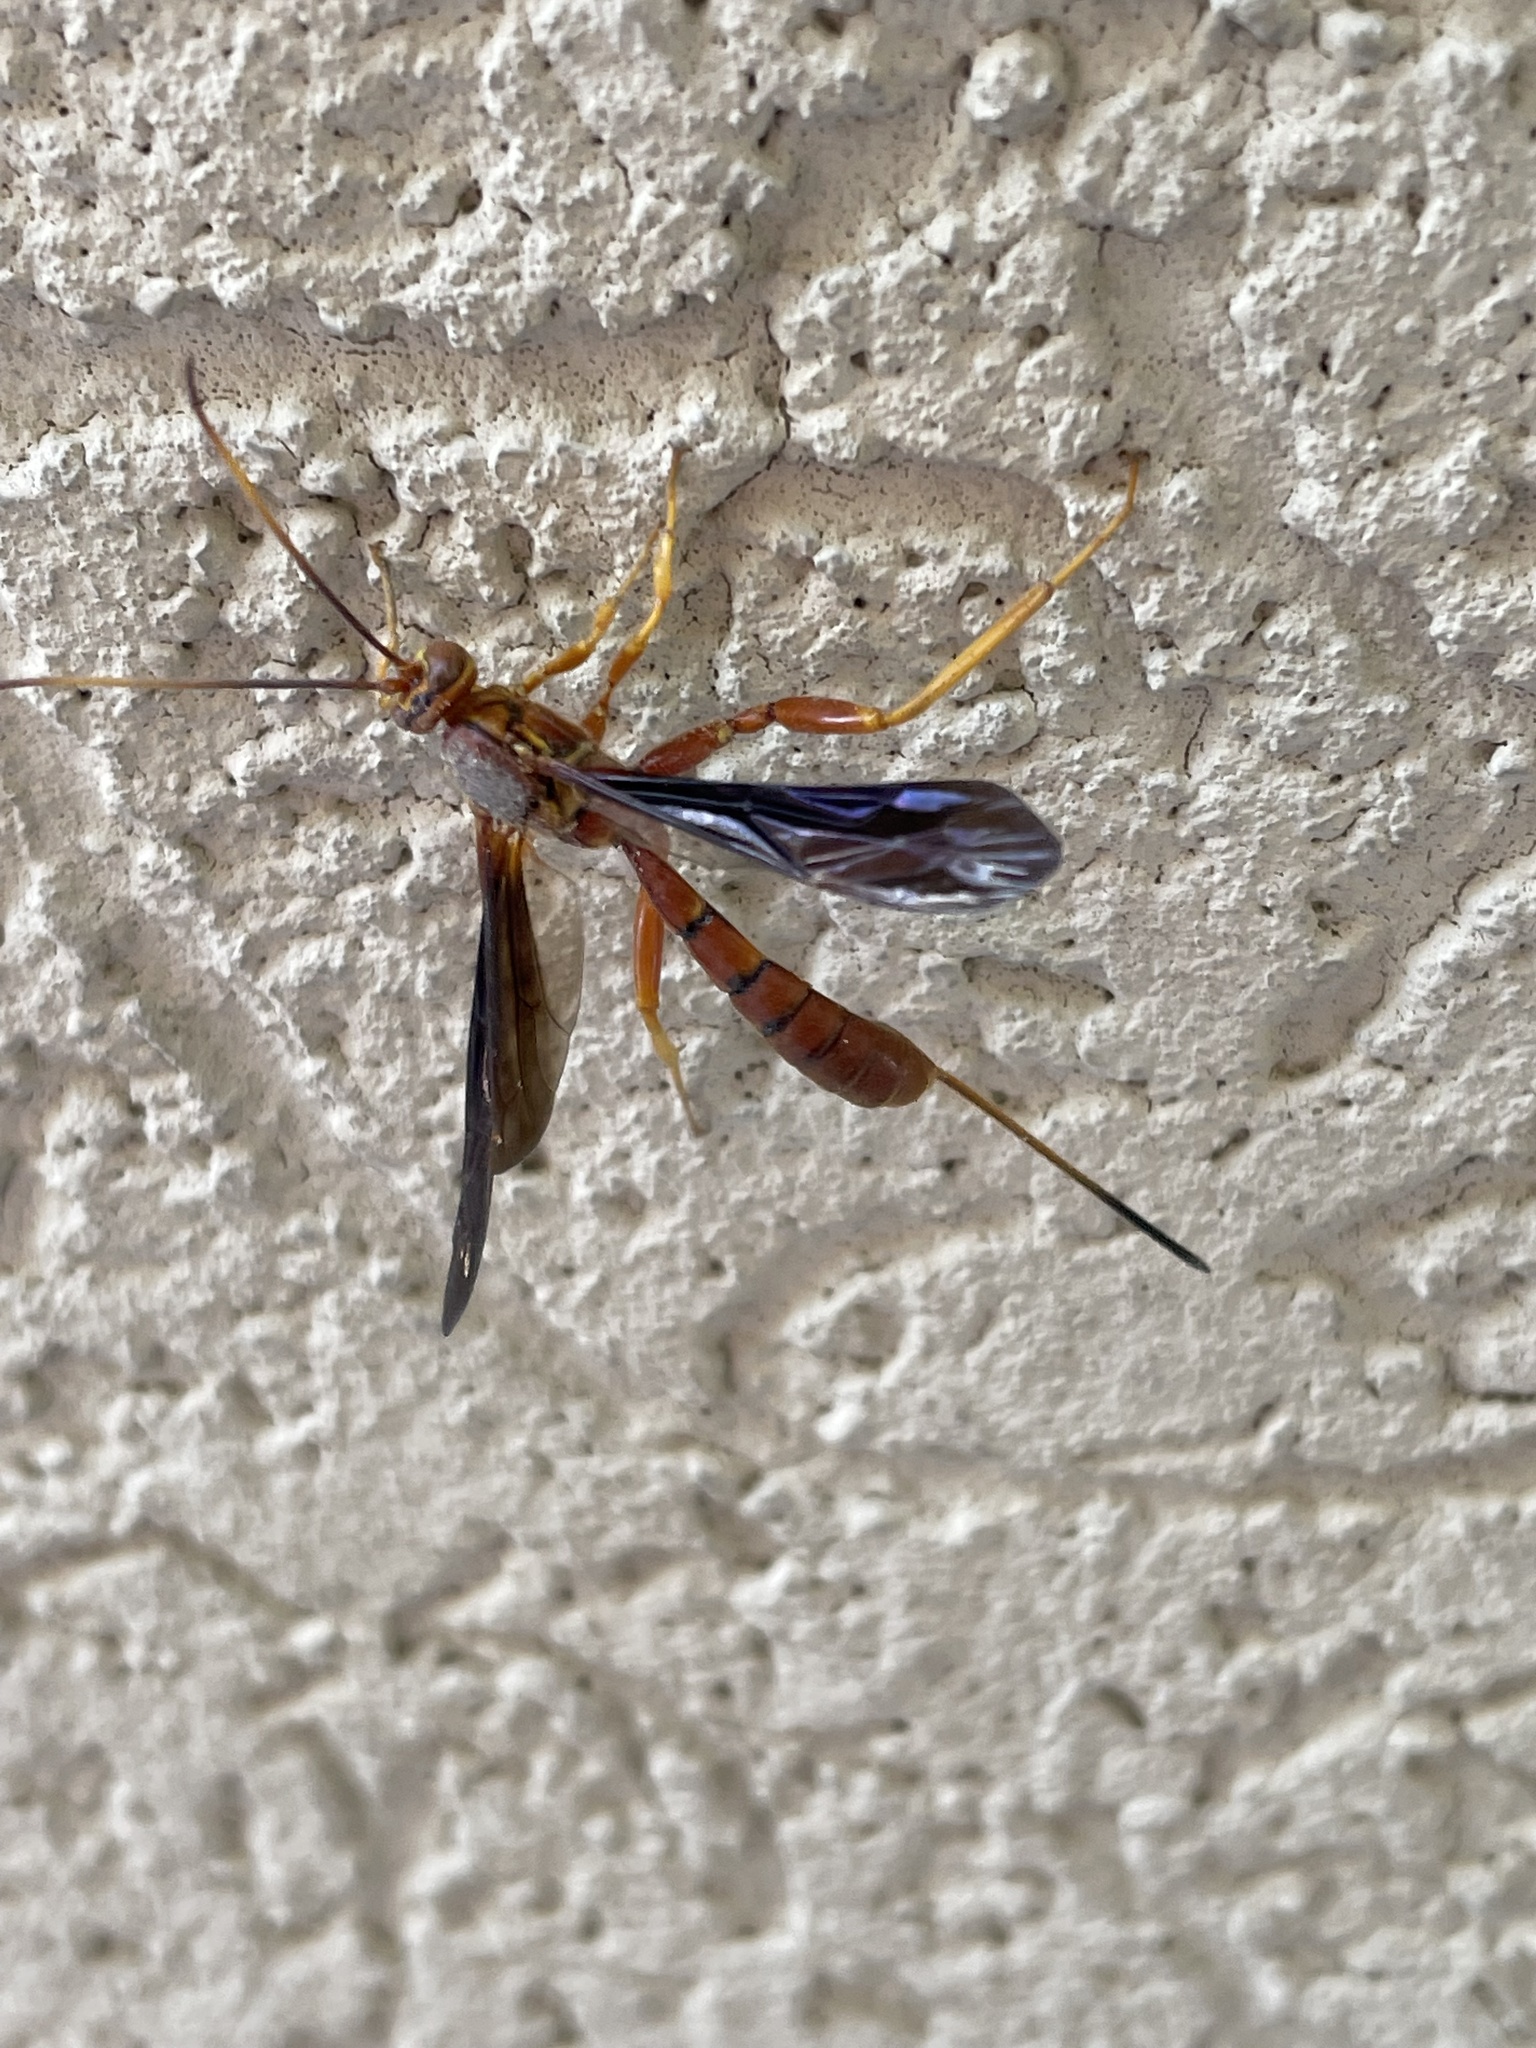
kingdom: Animalia
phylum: Arthropoda
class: Insecta
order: Hymenoptera
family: Ichneumonidae
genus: Labena
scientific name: Labena grallator
